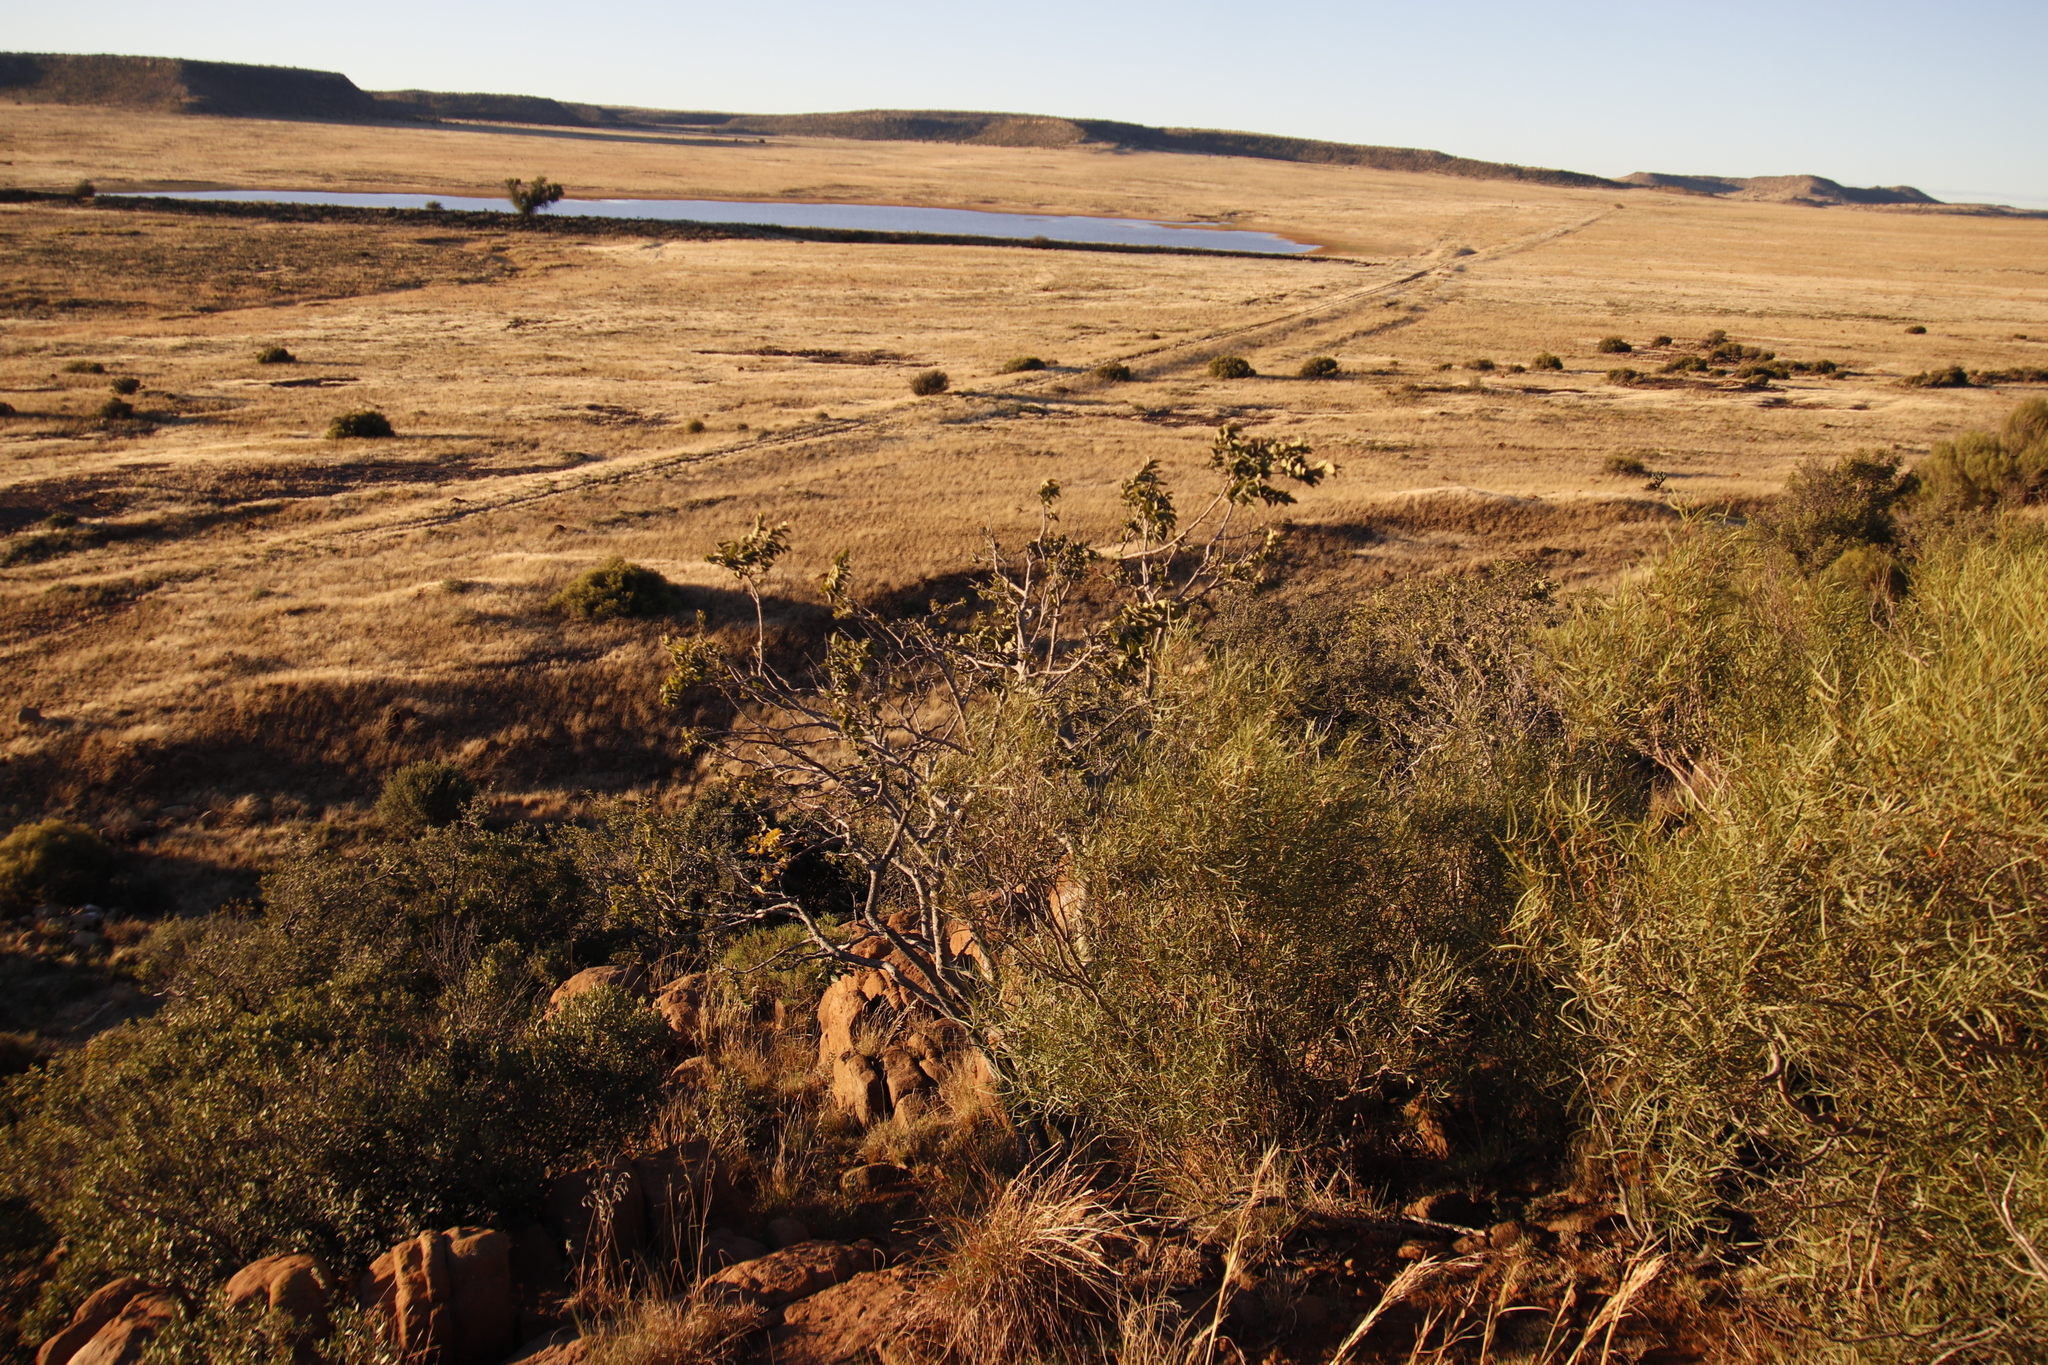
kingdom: Plantae
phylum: Tracheophyta
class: Magnoliopsida
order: Rosales
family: Cannabaceae
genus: Celtis
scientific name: Celtis africana
